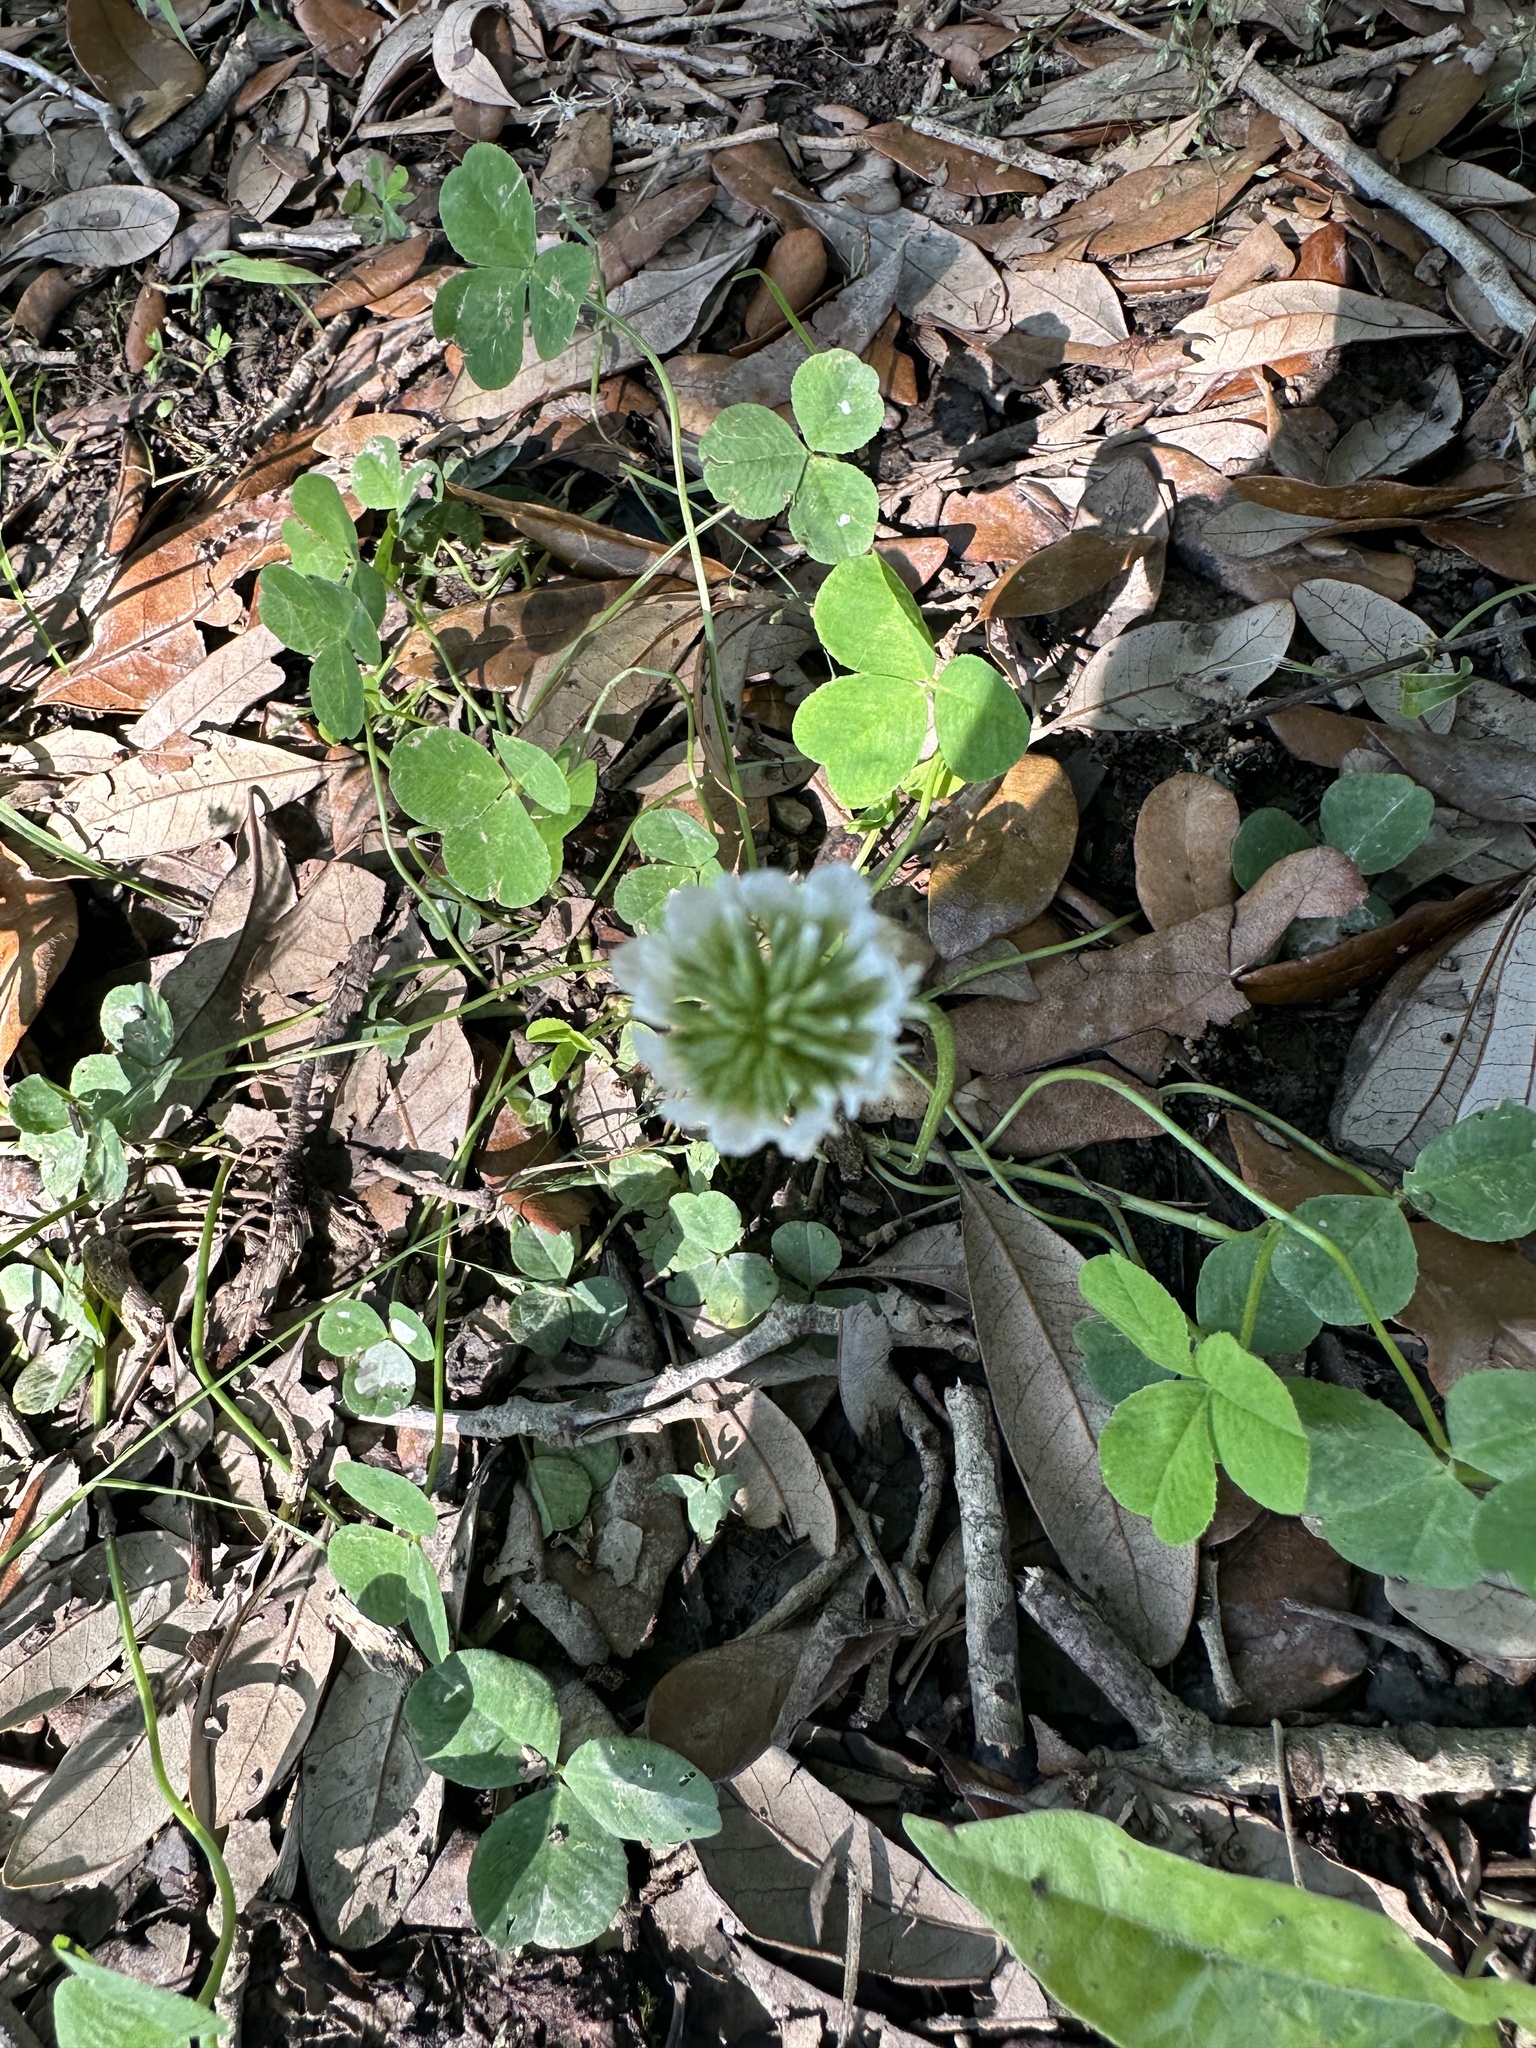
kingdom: Plantae
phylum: Tracheophyta
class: Magnoliopsida
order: Fabales
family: Fabaceae
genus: Trifolium
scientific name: Trifolium repens
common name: White clover
